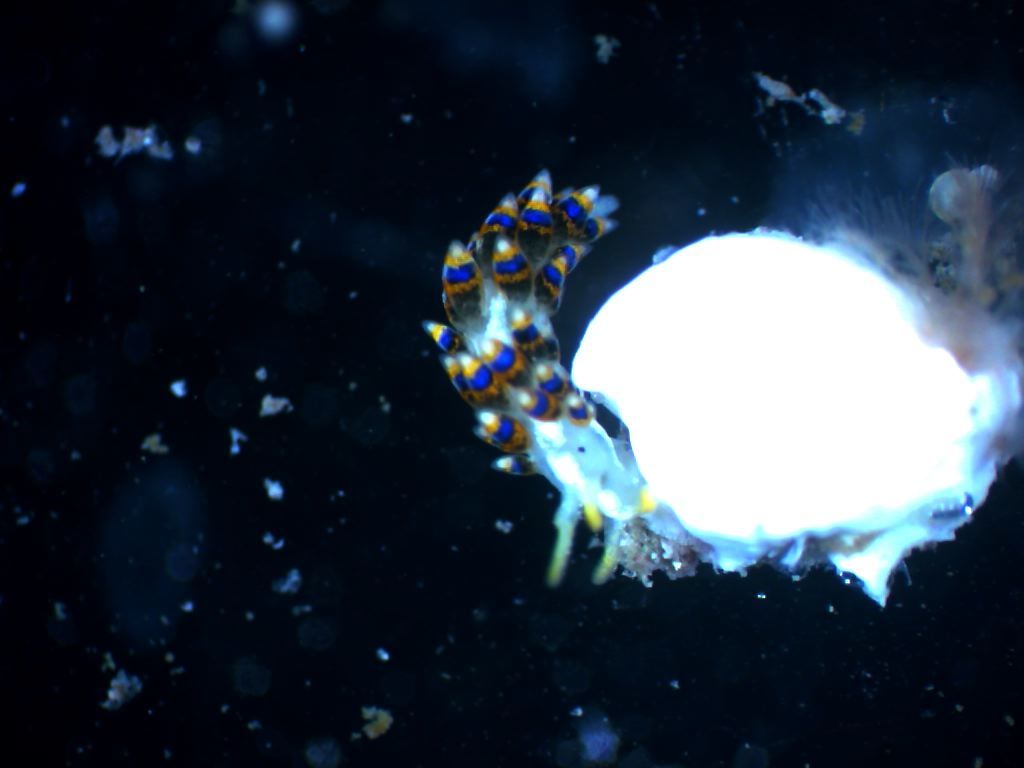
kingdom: Animalia
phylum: Mollusca
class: Gastropoda
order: Nudibranchia
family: Trinchesiidae
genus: Trinchesia
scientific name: Trinchesia morrowae
